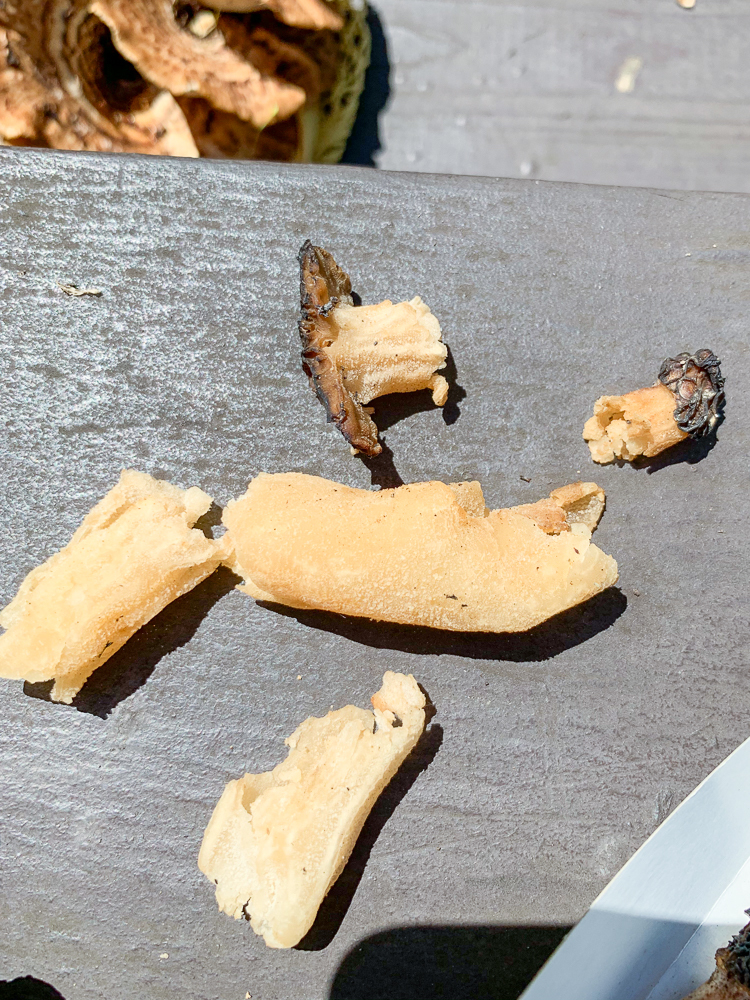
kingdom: Fungi
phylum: Ascomycota
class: Pezizomycetes
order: Pezizales
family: Morchellaceae
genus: Morchella
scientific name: Morchella punctipes
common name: Half-free morel
